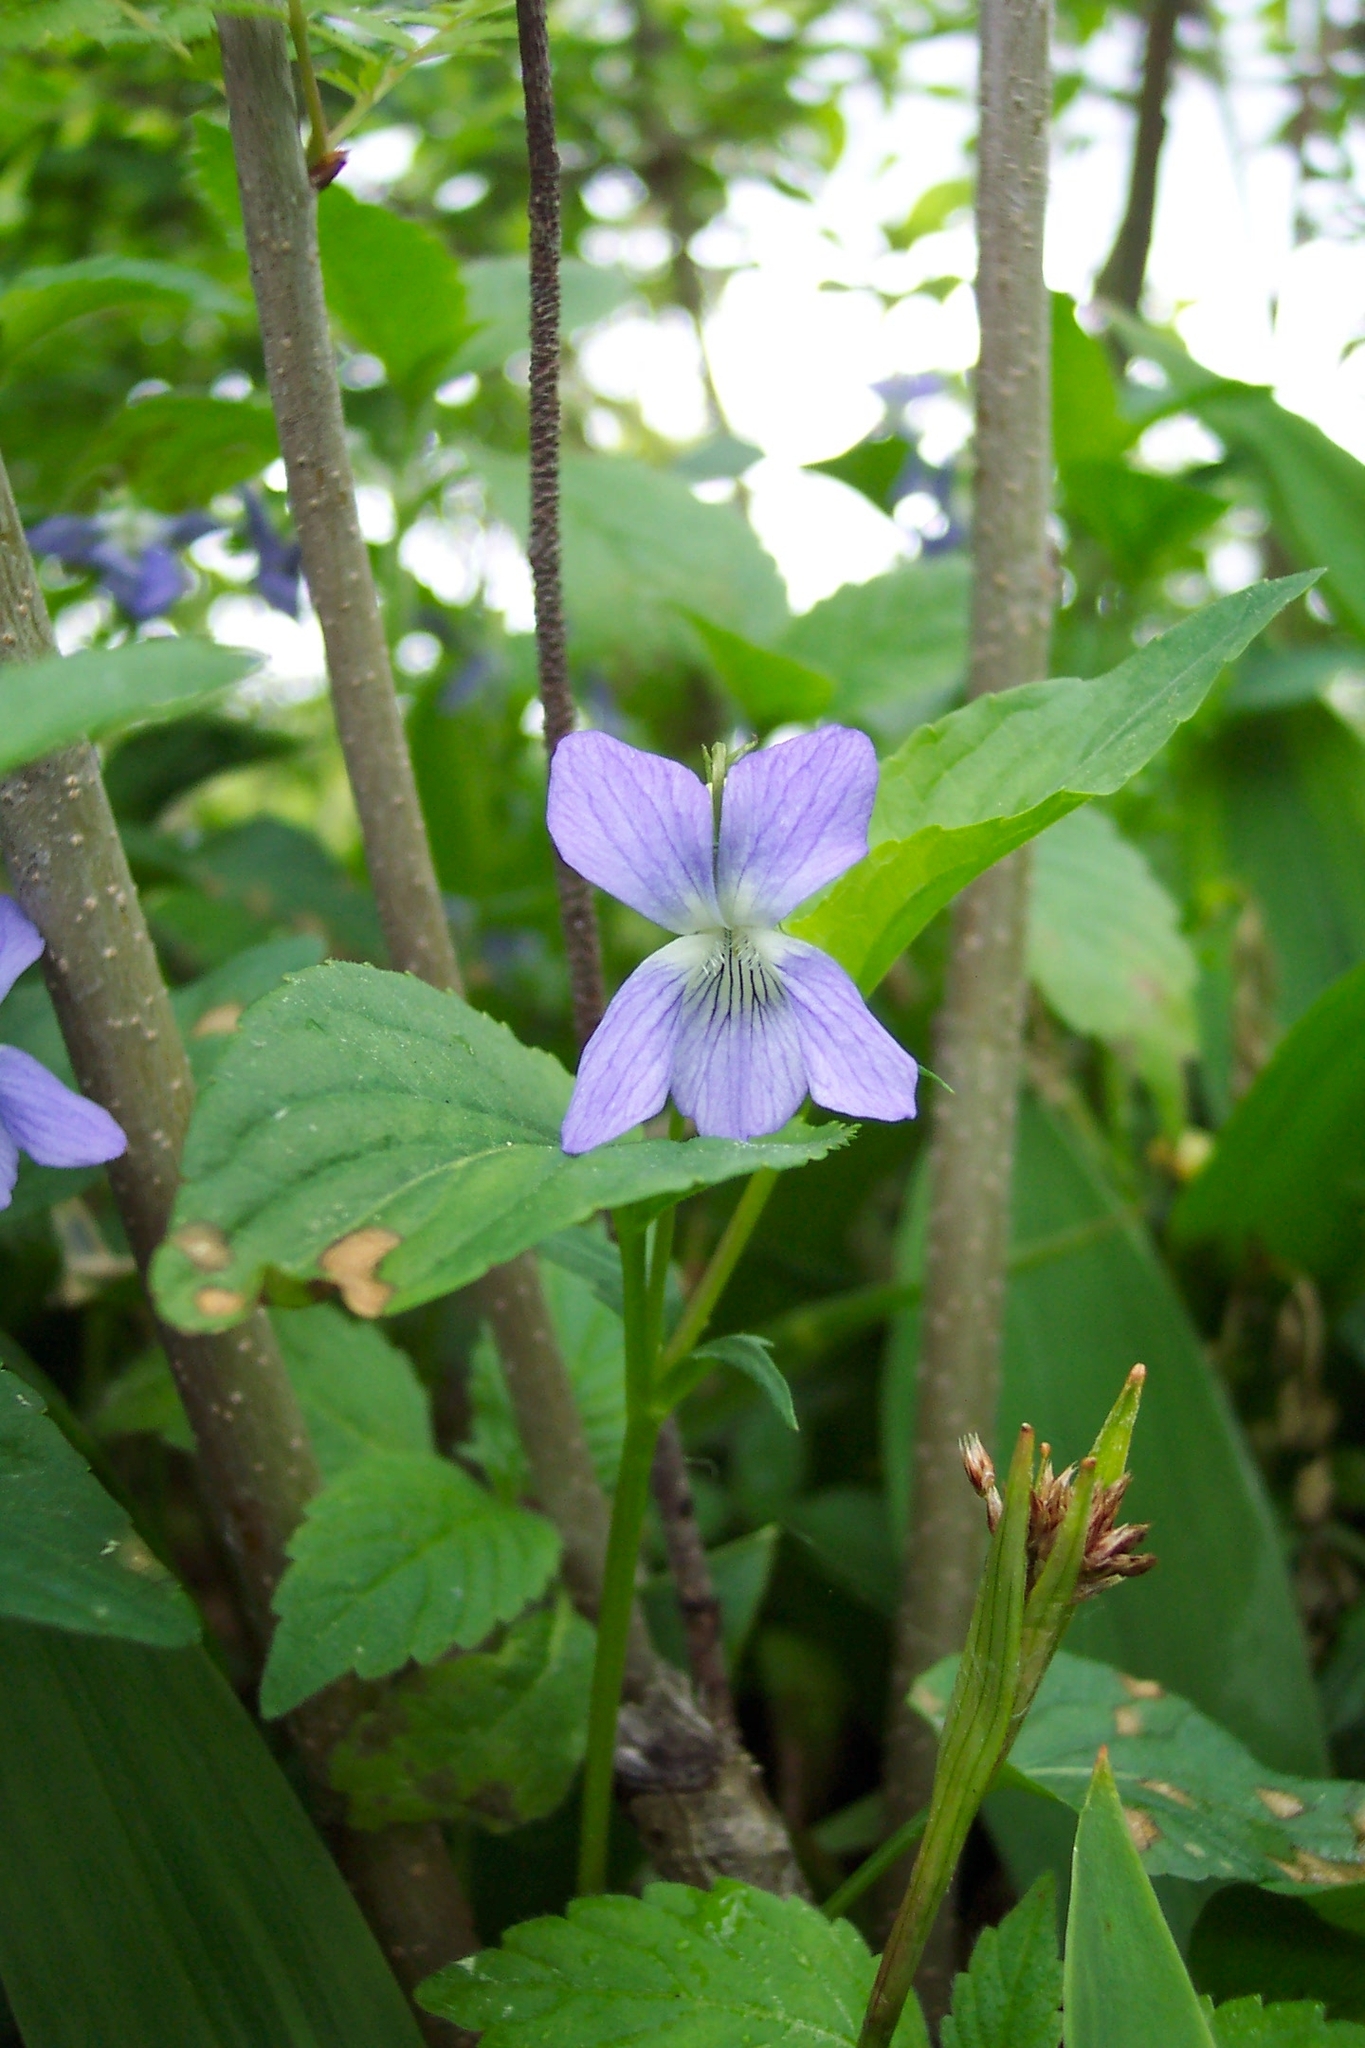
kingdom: Plantae
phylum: Tracheophyta
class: Magnoliopsida
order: Malpighiales
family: Violaceae
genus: Viola
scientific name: Viola
